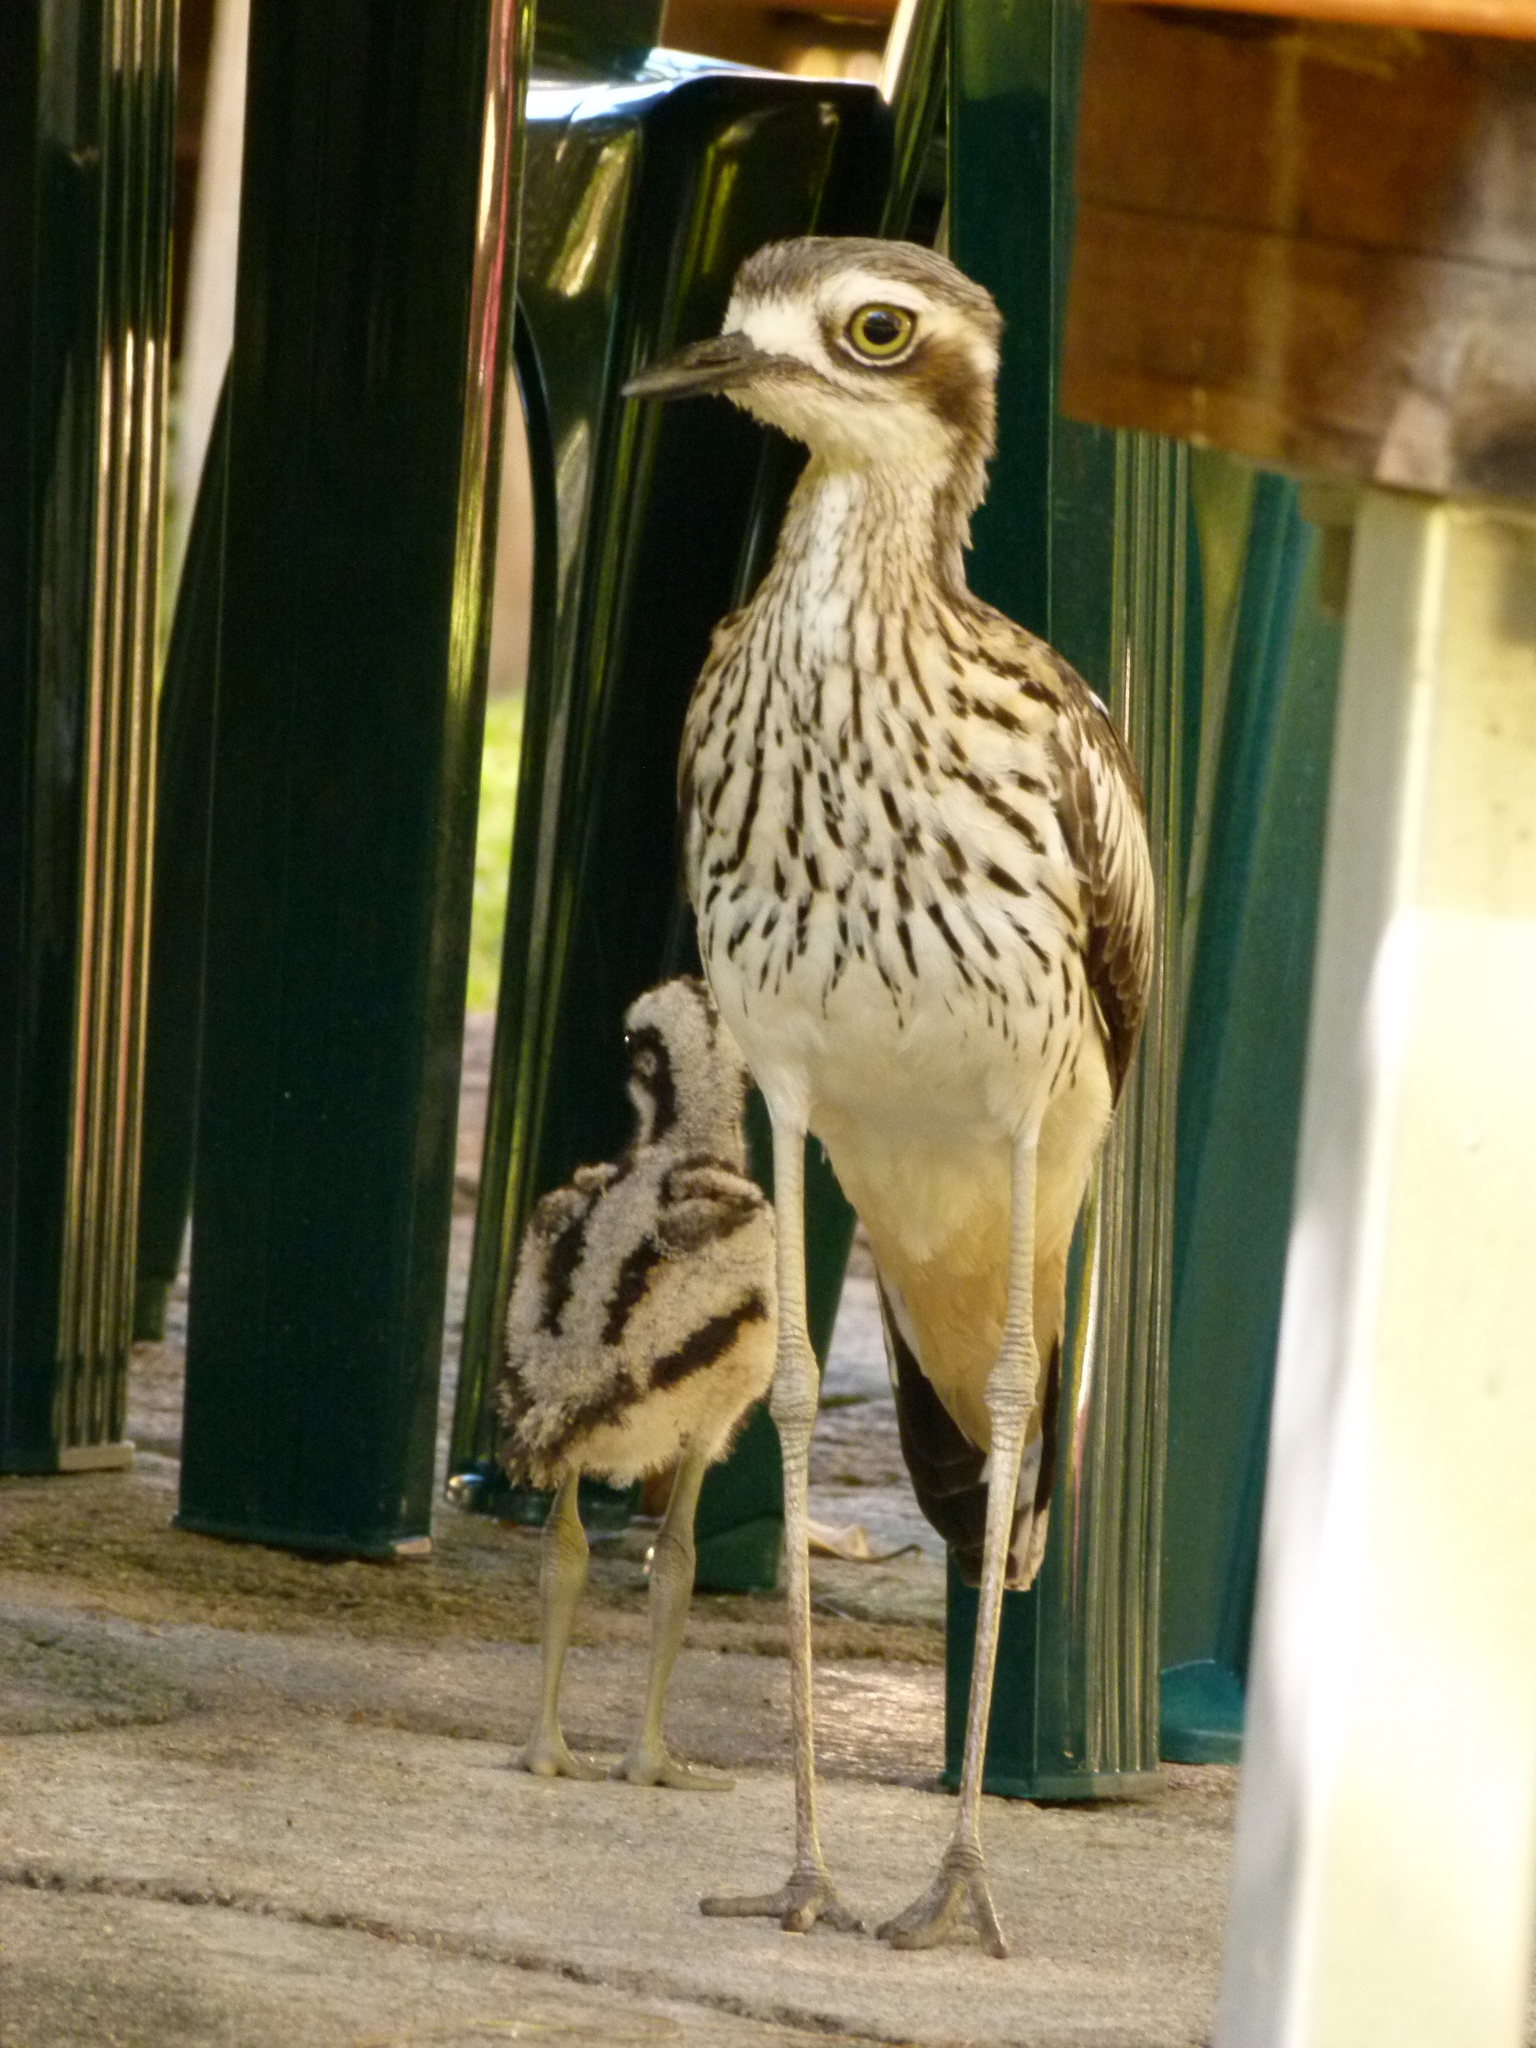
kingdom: Animalia
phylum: Chordata
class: Aves
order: Charadriiformes
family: Burhinidae
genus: Burhinus
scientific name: Burhinus grallarius
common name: Bush stone-curlew
